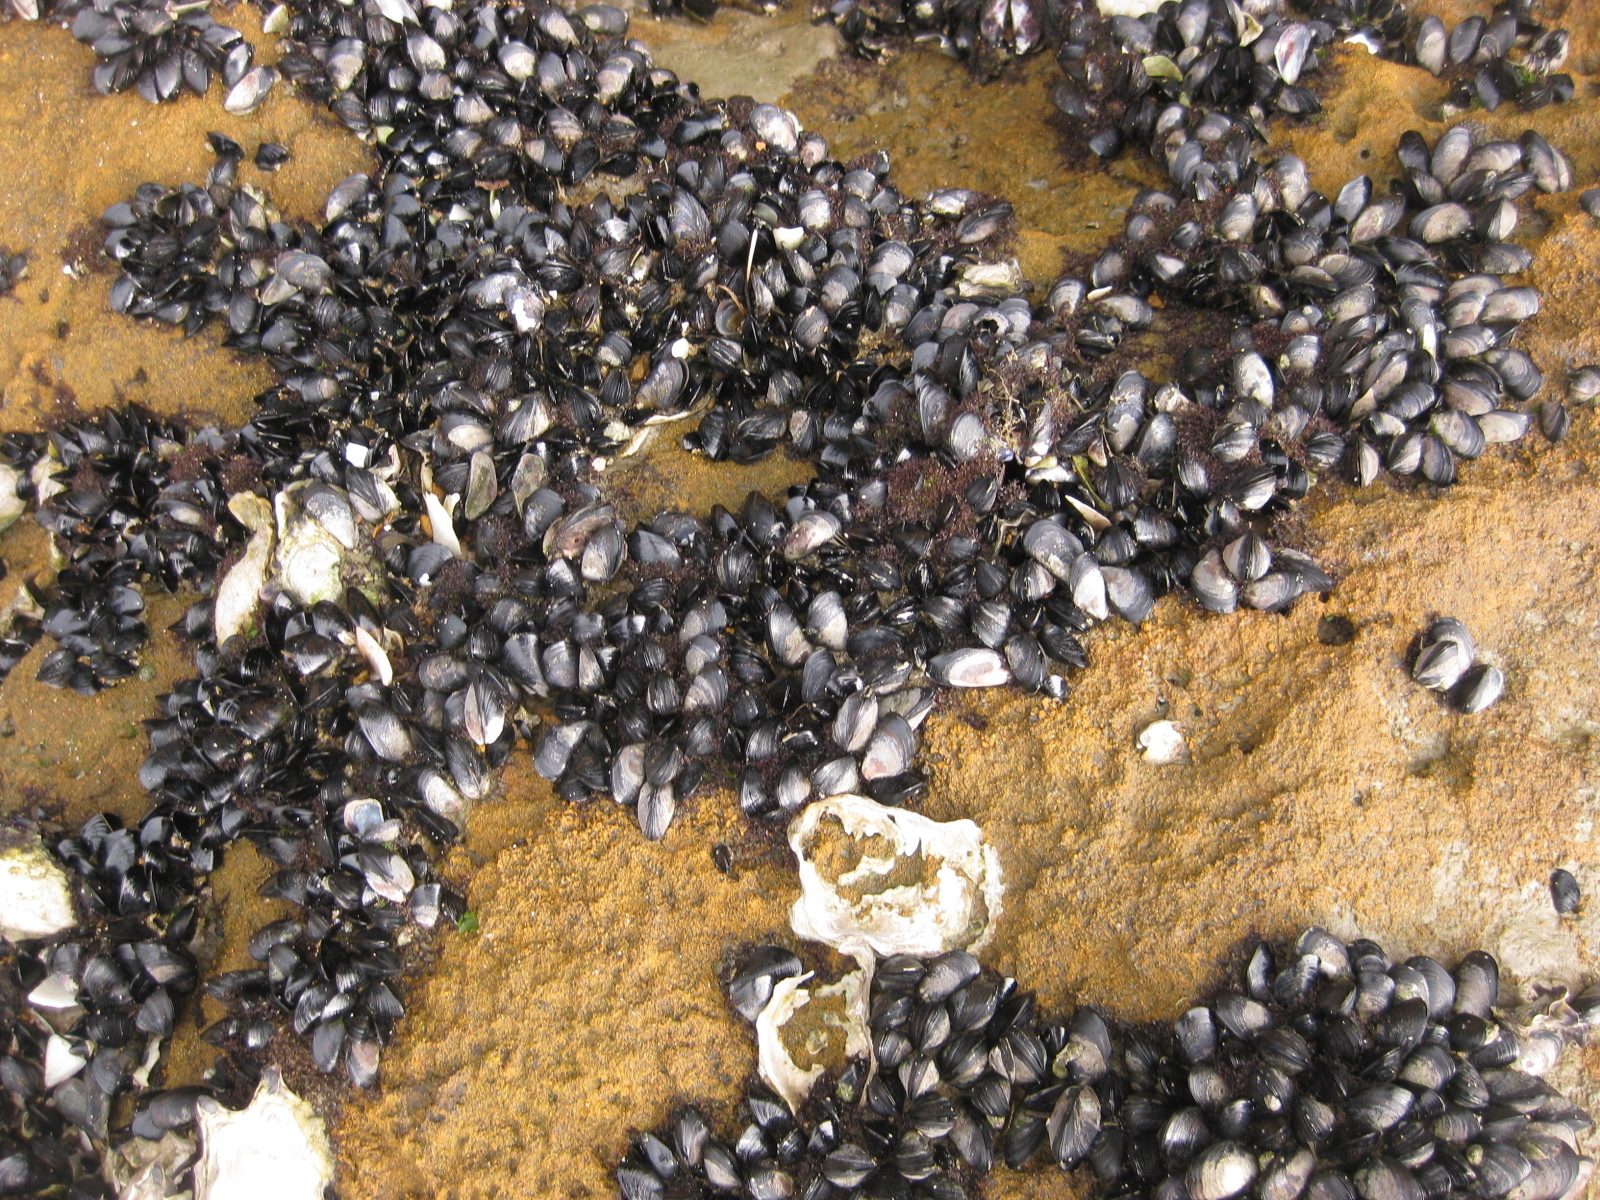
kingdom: Animalia
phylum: Mollusca
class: Bivalvia
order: Mytilida
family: Mytilidae
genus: Xenostrobus
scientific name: Xenostrobus neozelanicus
